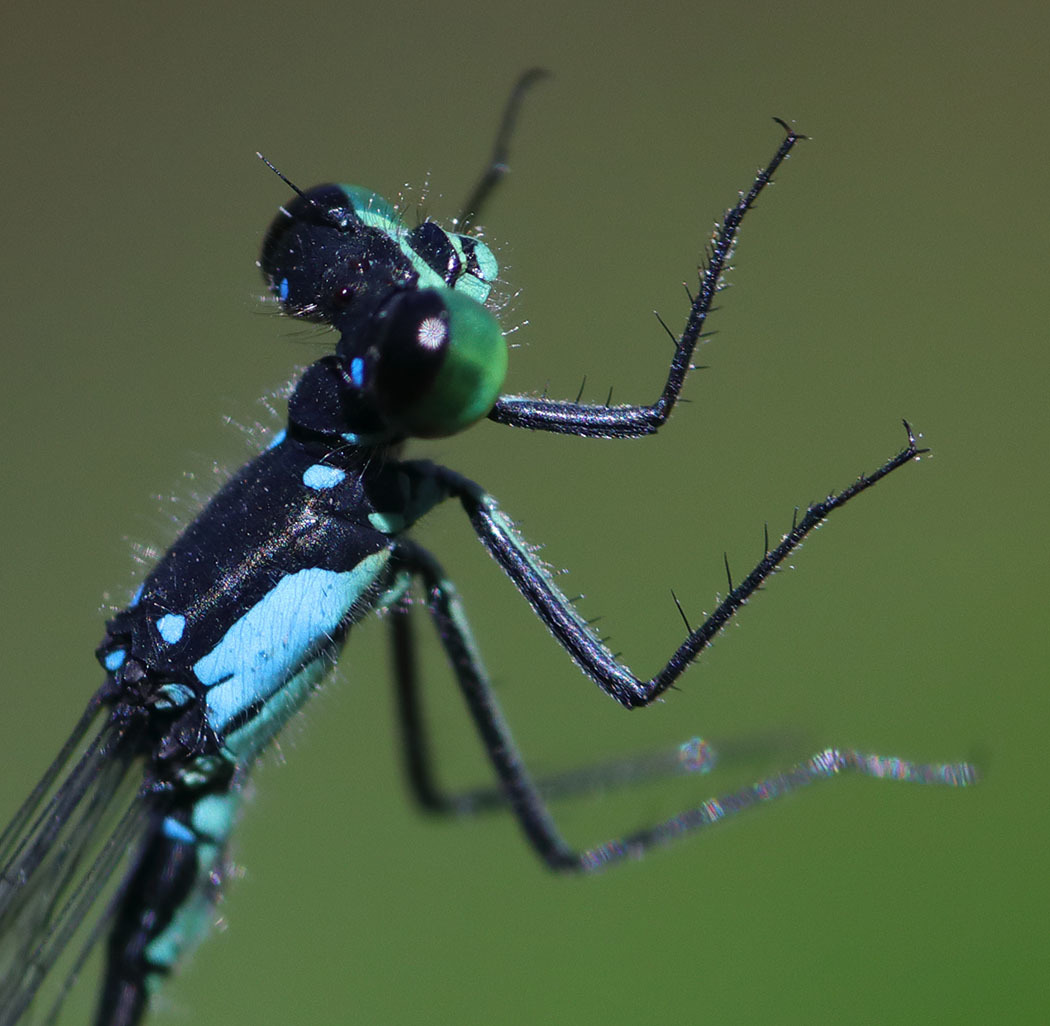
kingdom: Animalia
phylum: Arthropoda
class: Insecta
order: Odonata
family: Coenagrionidae
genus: Ischnura
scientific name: Ischnura cervula
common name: Pacific forktail
